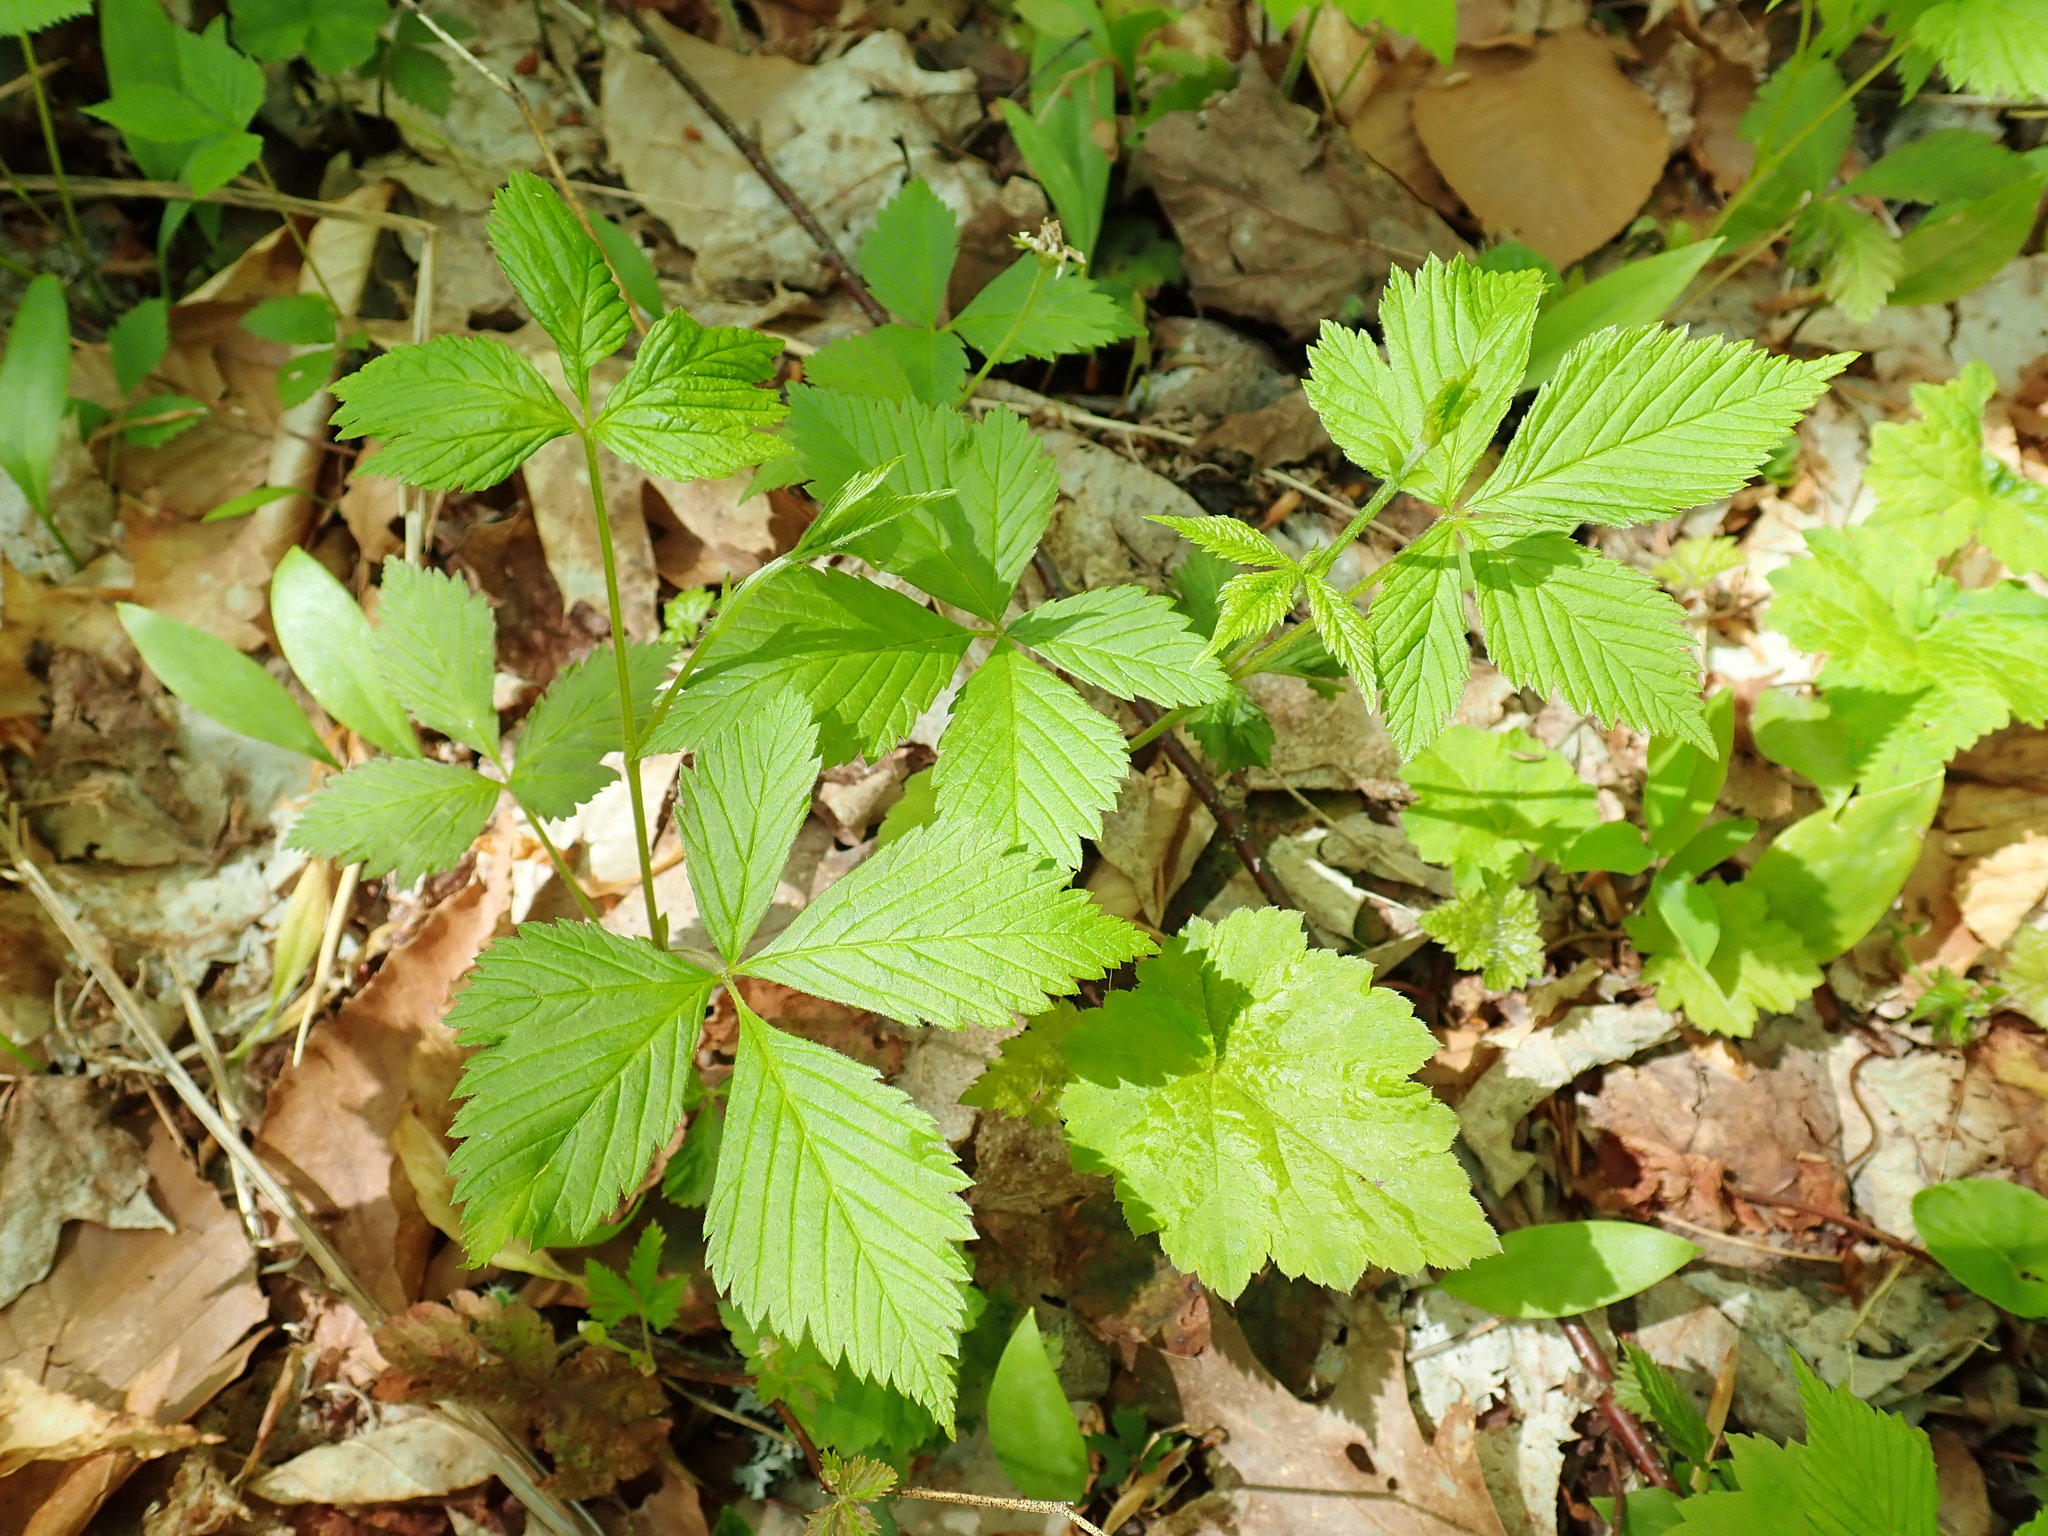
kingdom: Plantae
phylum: Tracheophyta
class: Magnoliopsida
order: Rosales
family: Rosaceae
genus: Rubus
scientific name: Rubus pubescens
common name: Dwarf raspberry
